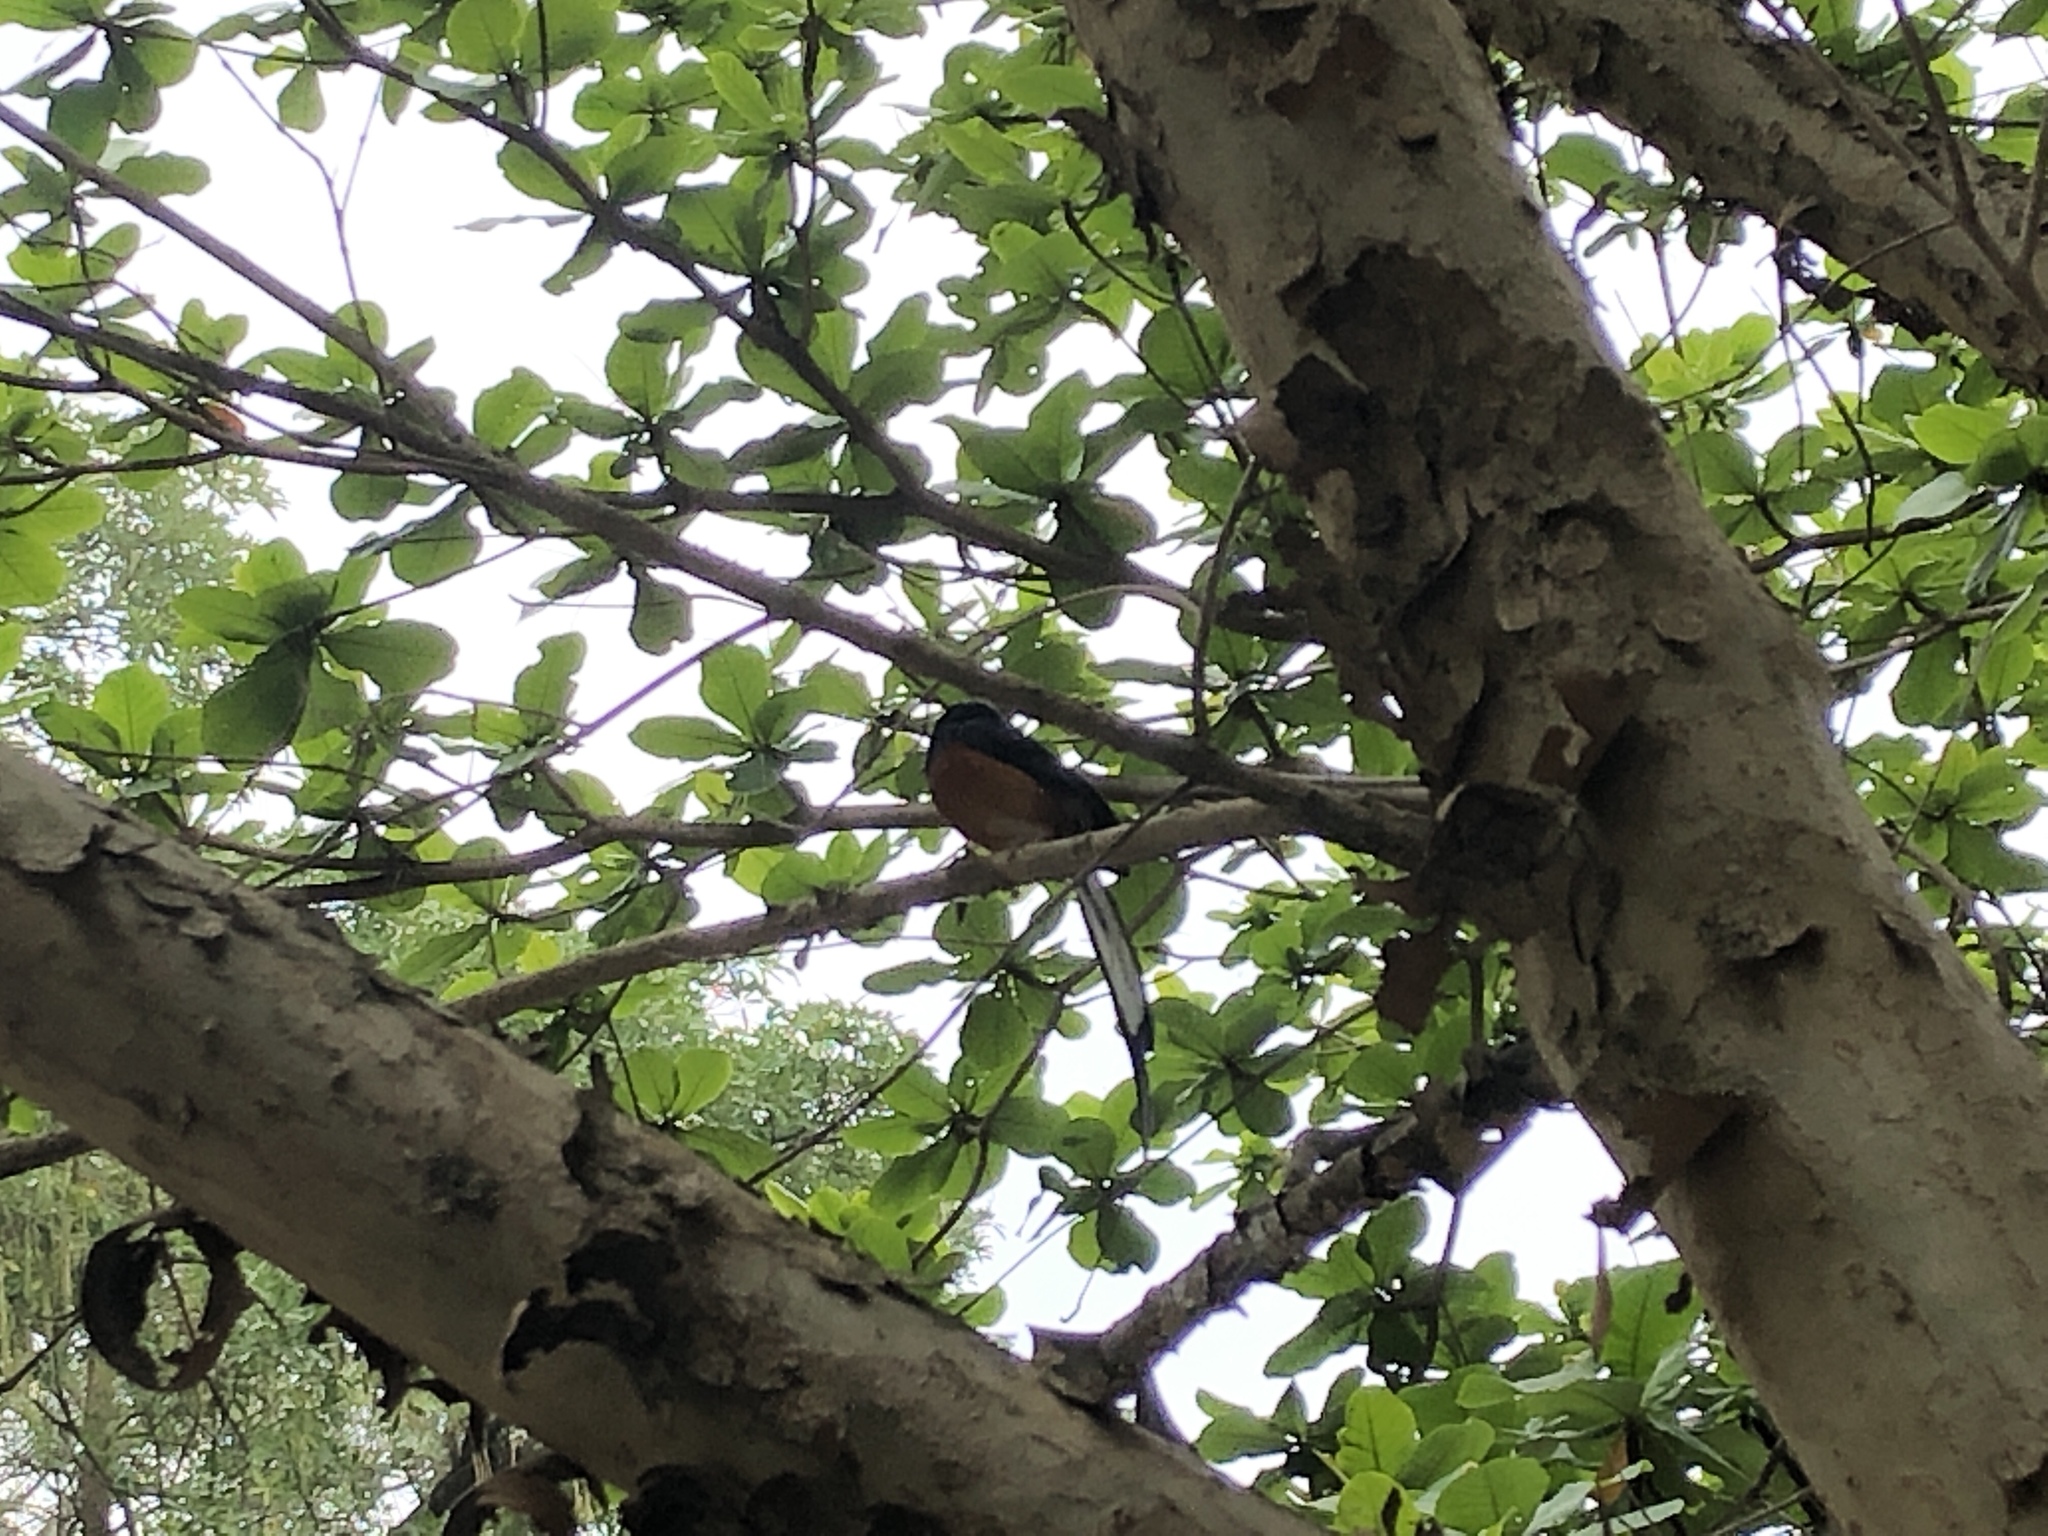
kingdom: Animalia
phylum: Chordata
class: Aves
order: Passeriformes
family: Muscicapidae
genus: Copsychus
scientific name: Copsychus malabaricus
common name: White-rumped shama
